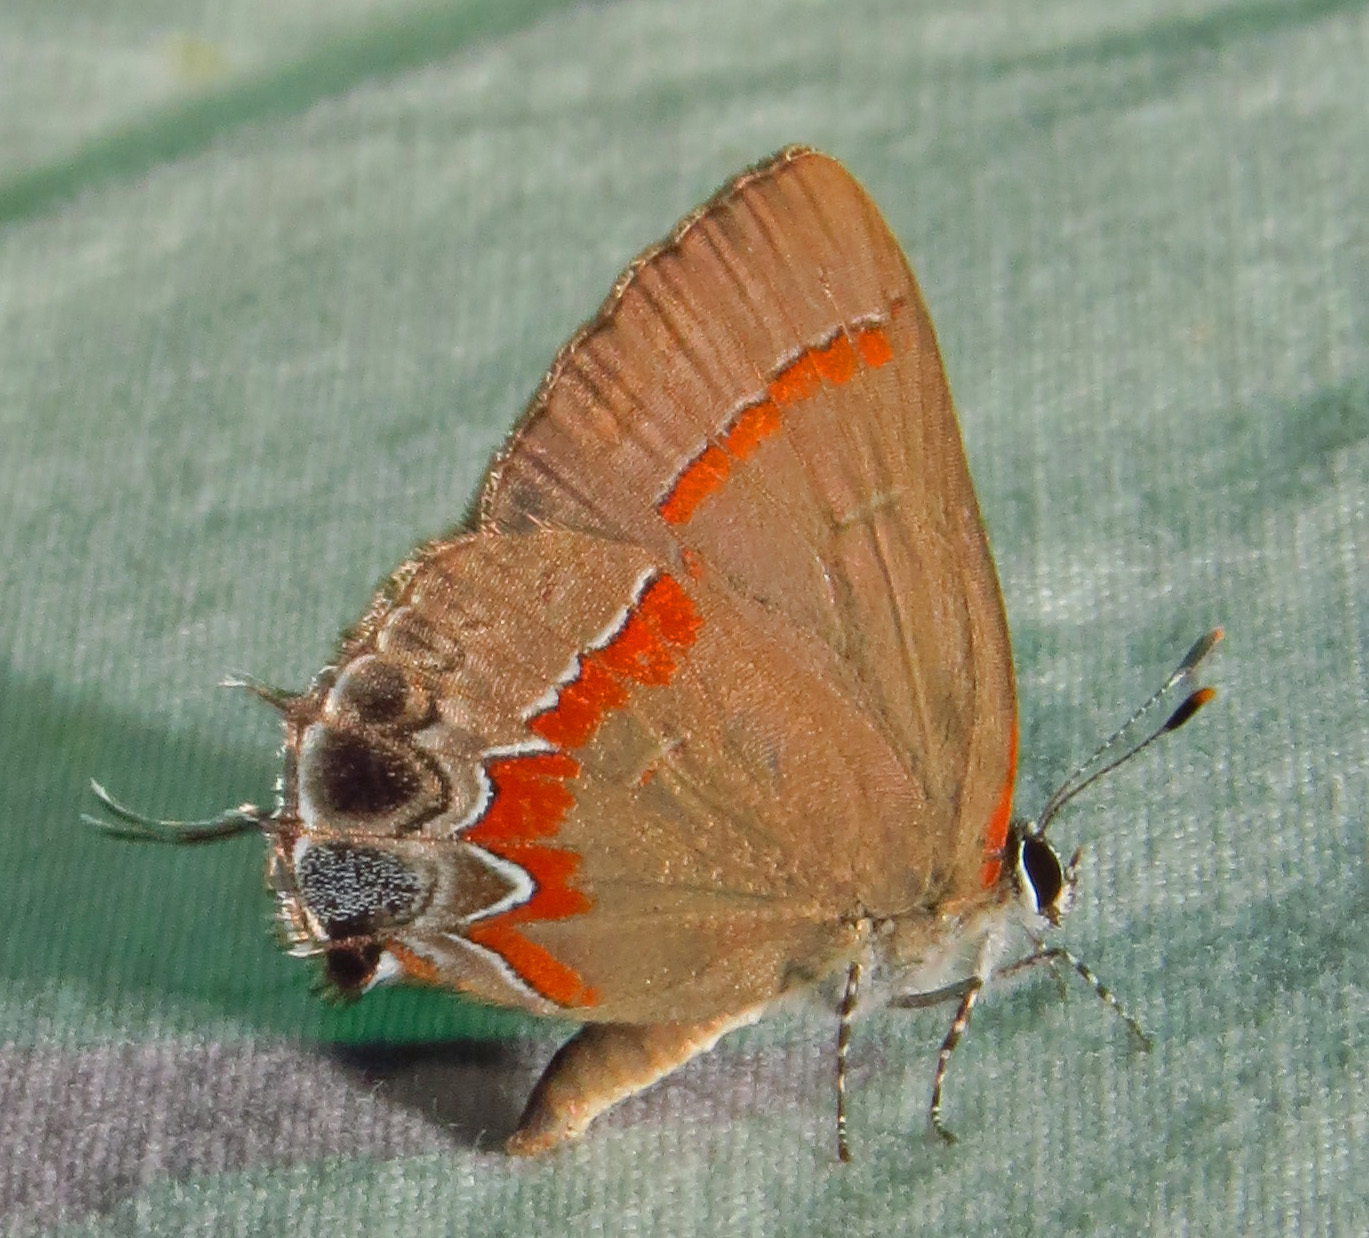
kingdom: Animalia
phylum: Arthropoda
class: Insecta
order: Lepidoptera
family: Lycaenidae
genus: Calycopis
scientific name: Calycopis cecrops
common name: Red-banded hairstreak
